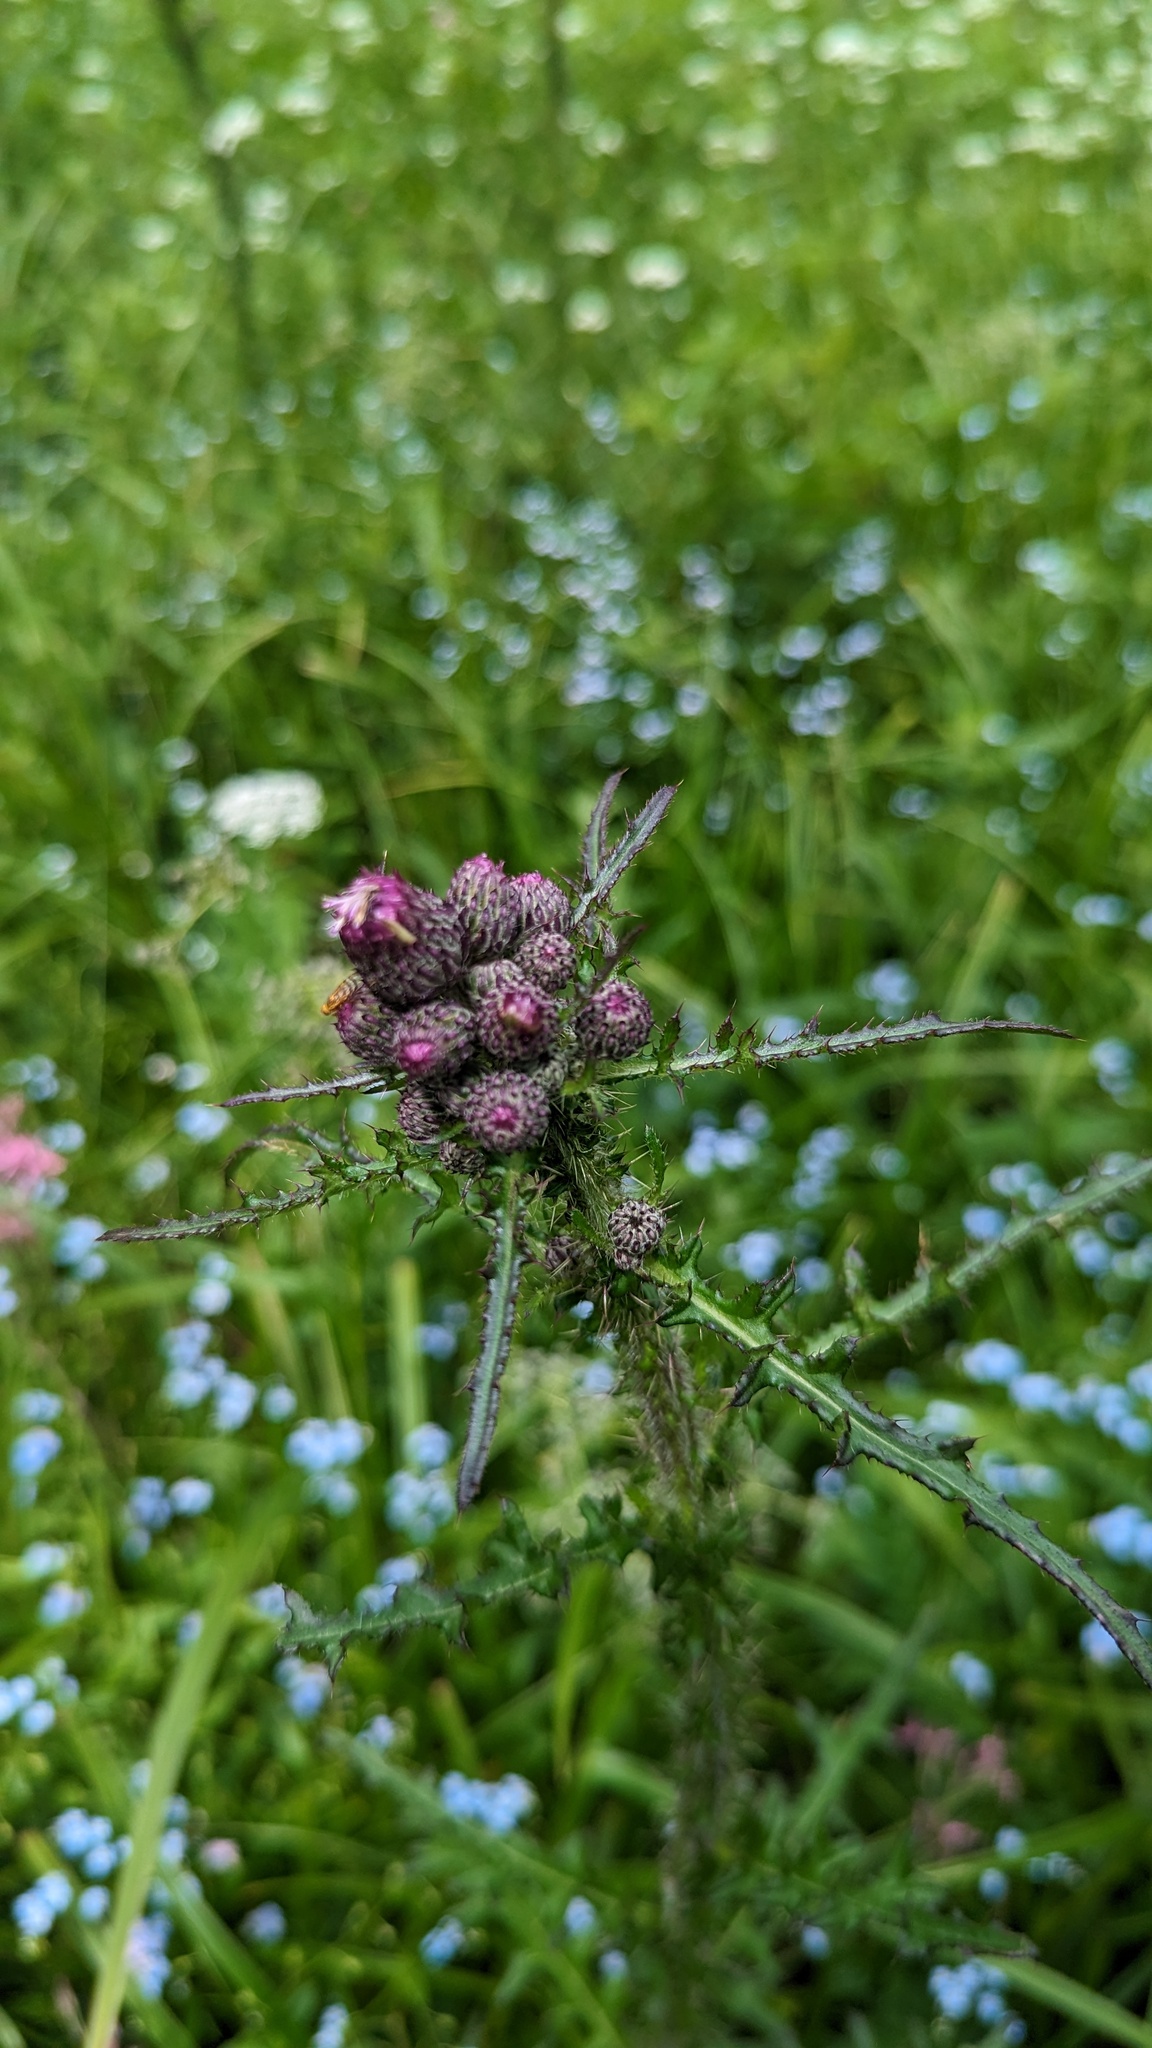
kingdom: Plantae
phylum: Tracheophyta
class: Magnoliopsida
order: Asterales
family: Asteraceae
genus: Cirsium
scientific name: Cirsium palustre
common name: Marsh thistle
